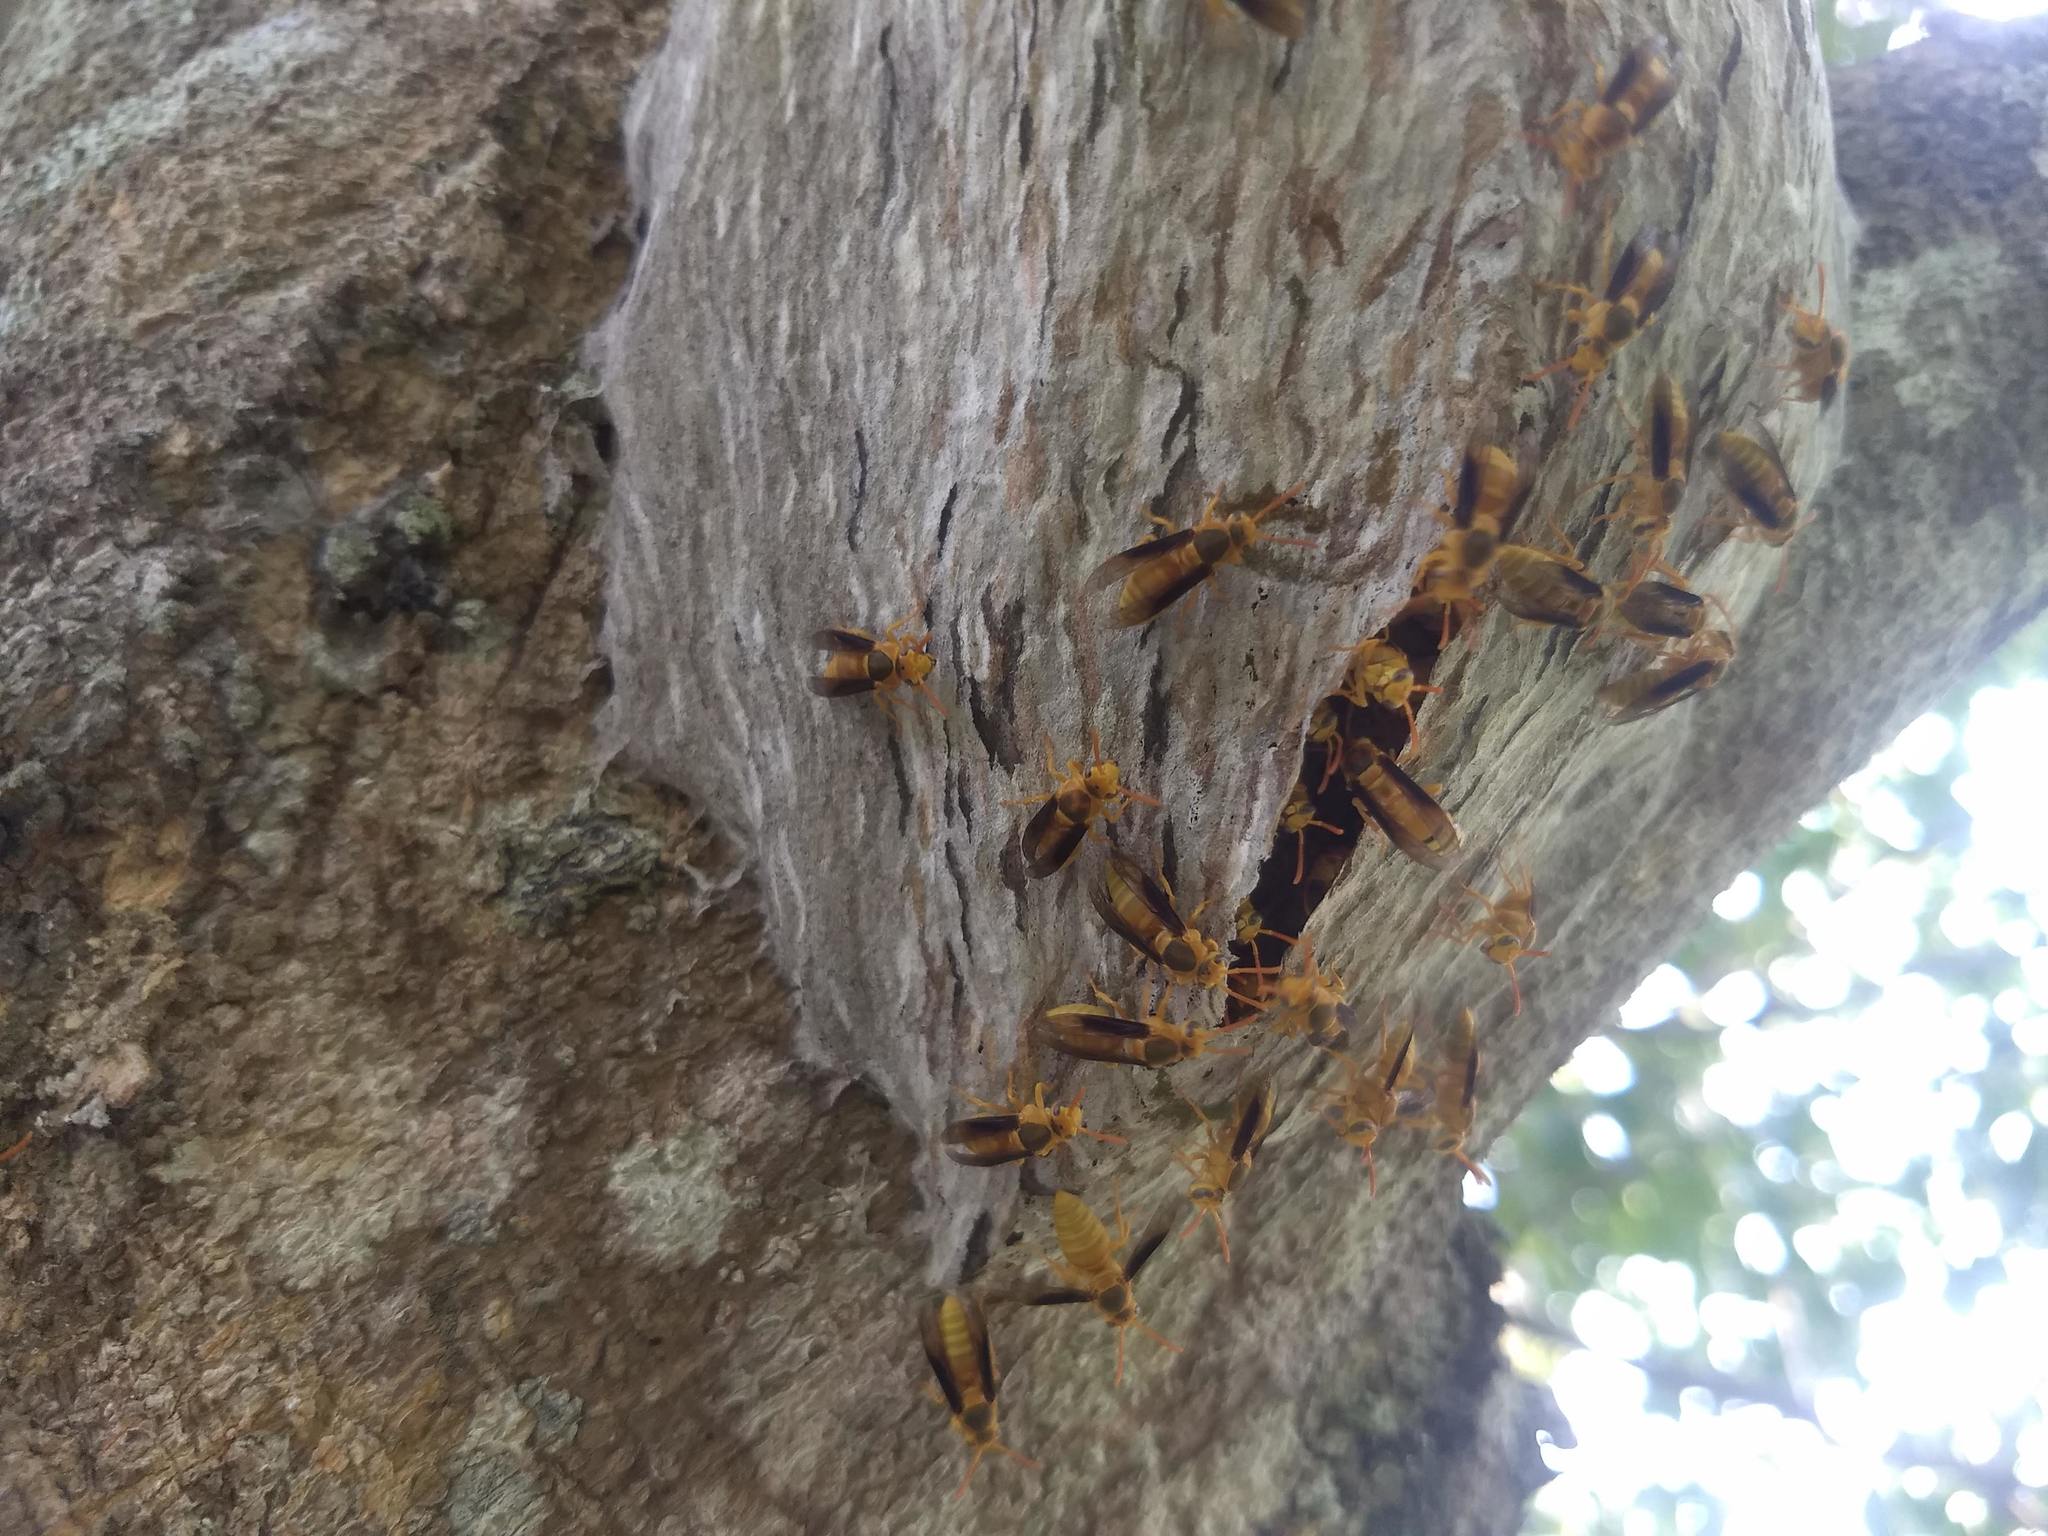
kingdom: Animalia
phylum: Arthropoda
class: Insecta
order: Hymenoptera
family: Vespidae
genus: Parachartergus
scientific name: Parachartergus colobopterus
